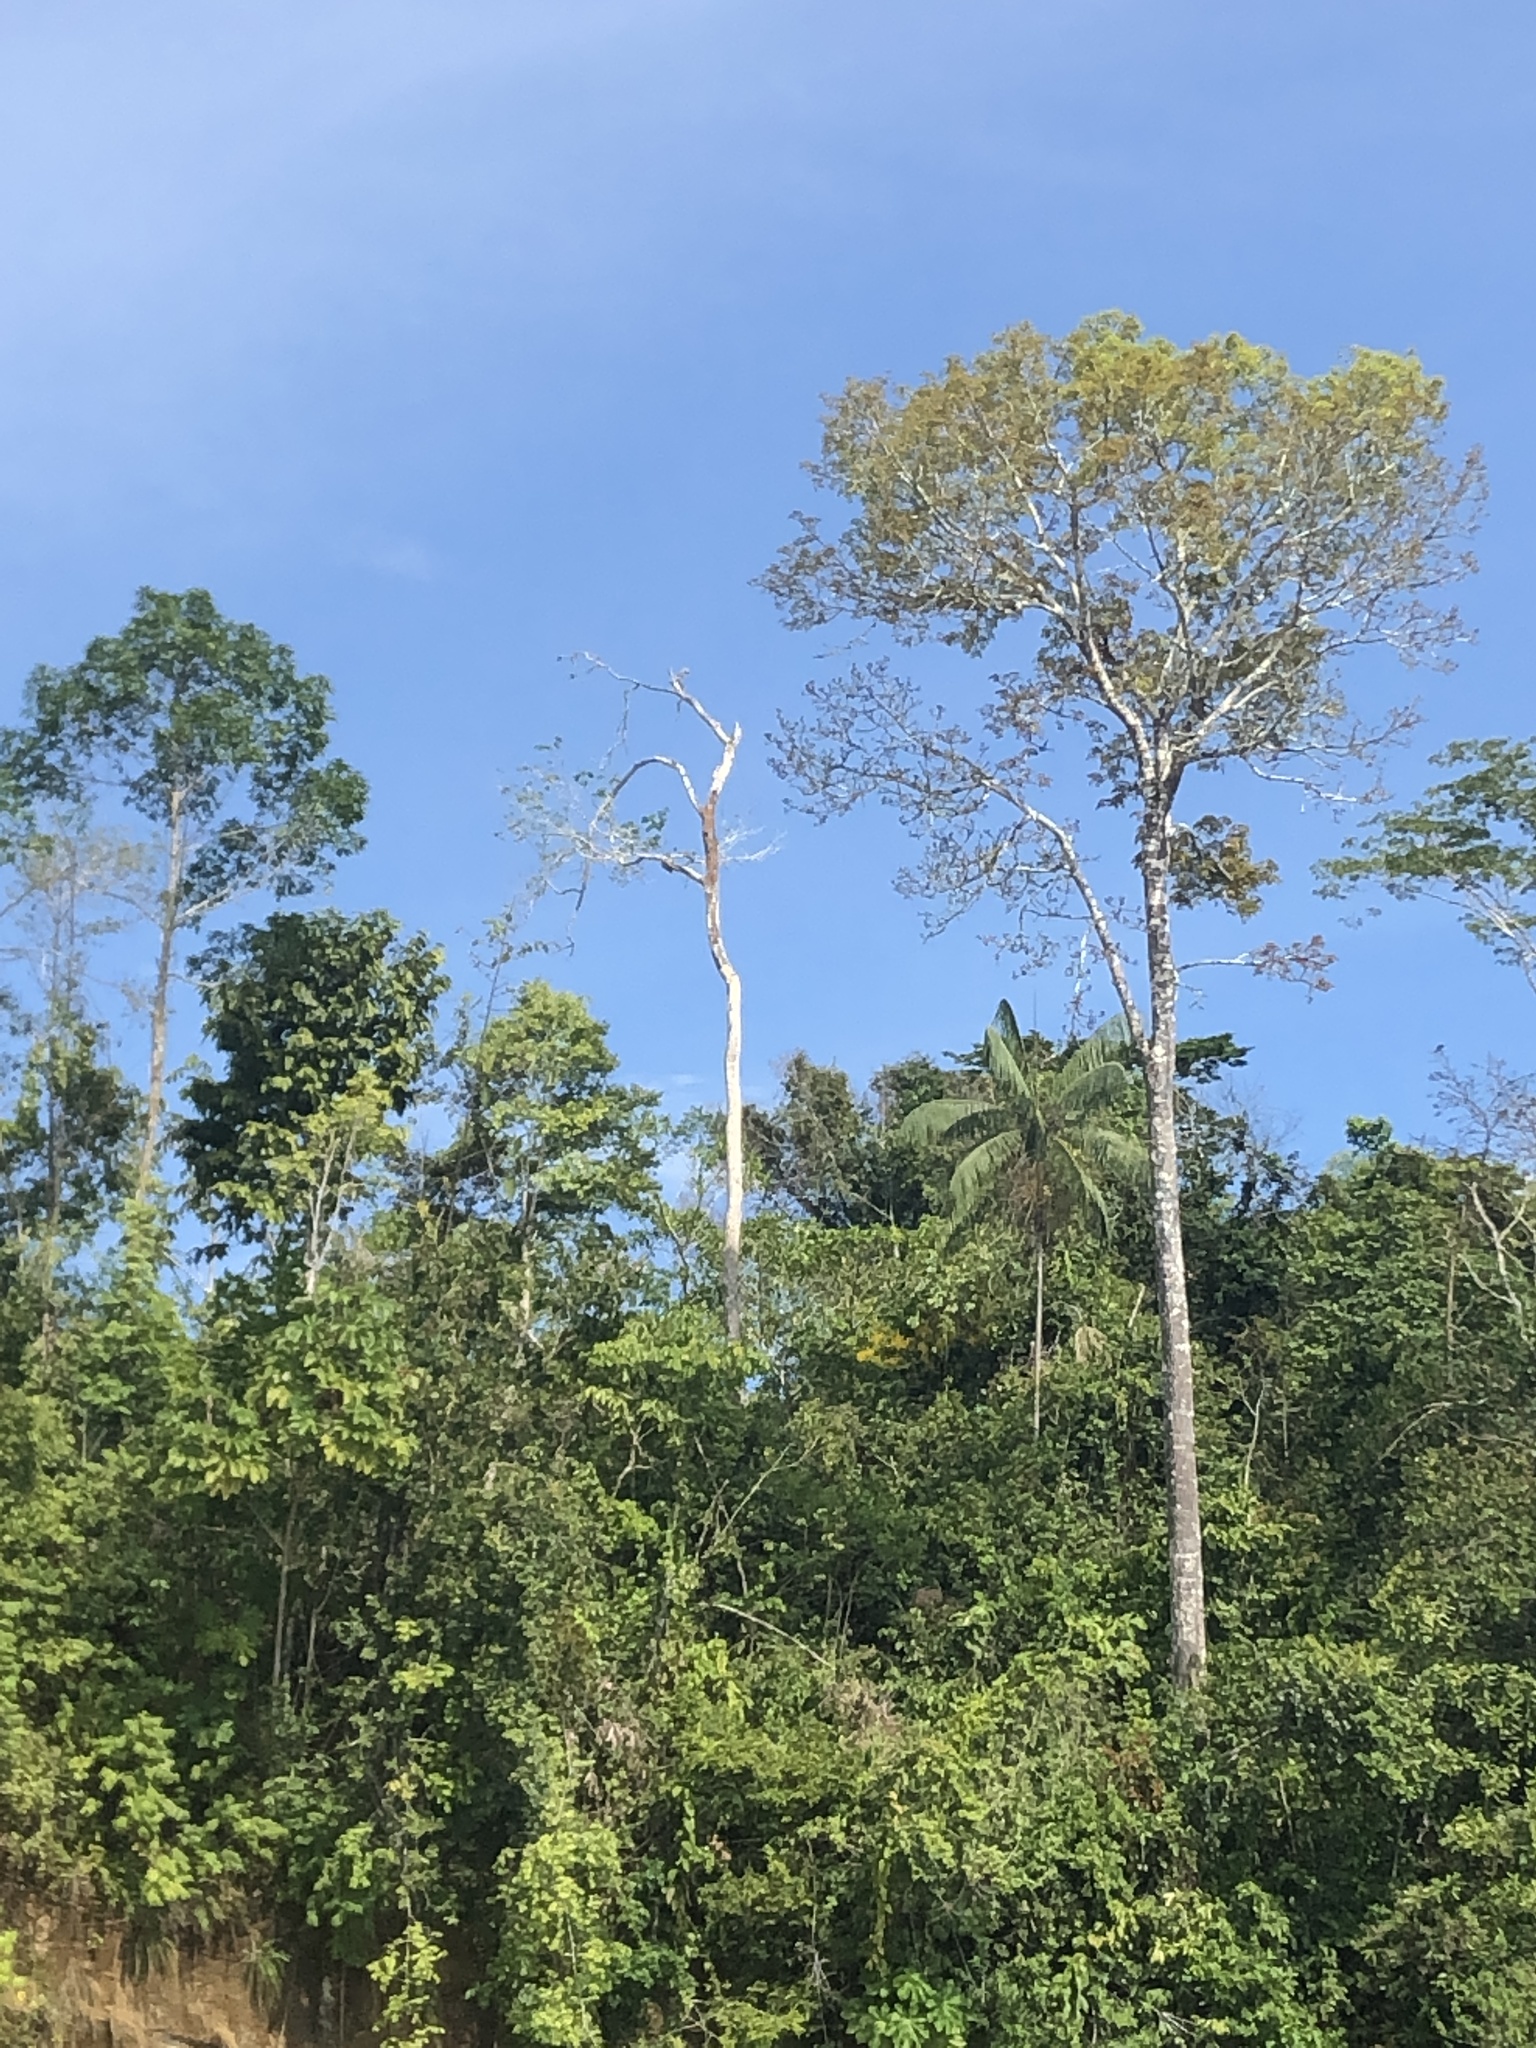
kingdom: Plantae
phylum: Tracheophyta
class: Liliopsida
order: Arecales
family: Arecaceae
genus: Euterpe
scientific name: Euterpe precatoria
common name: Mountain-cabbage
